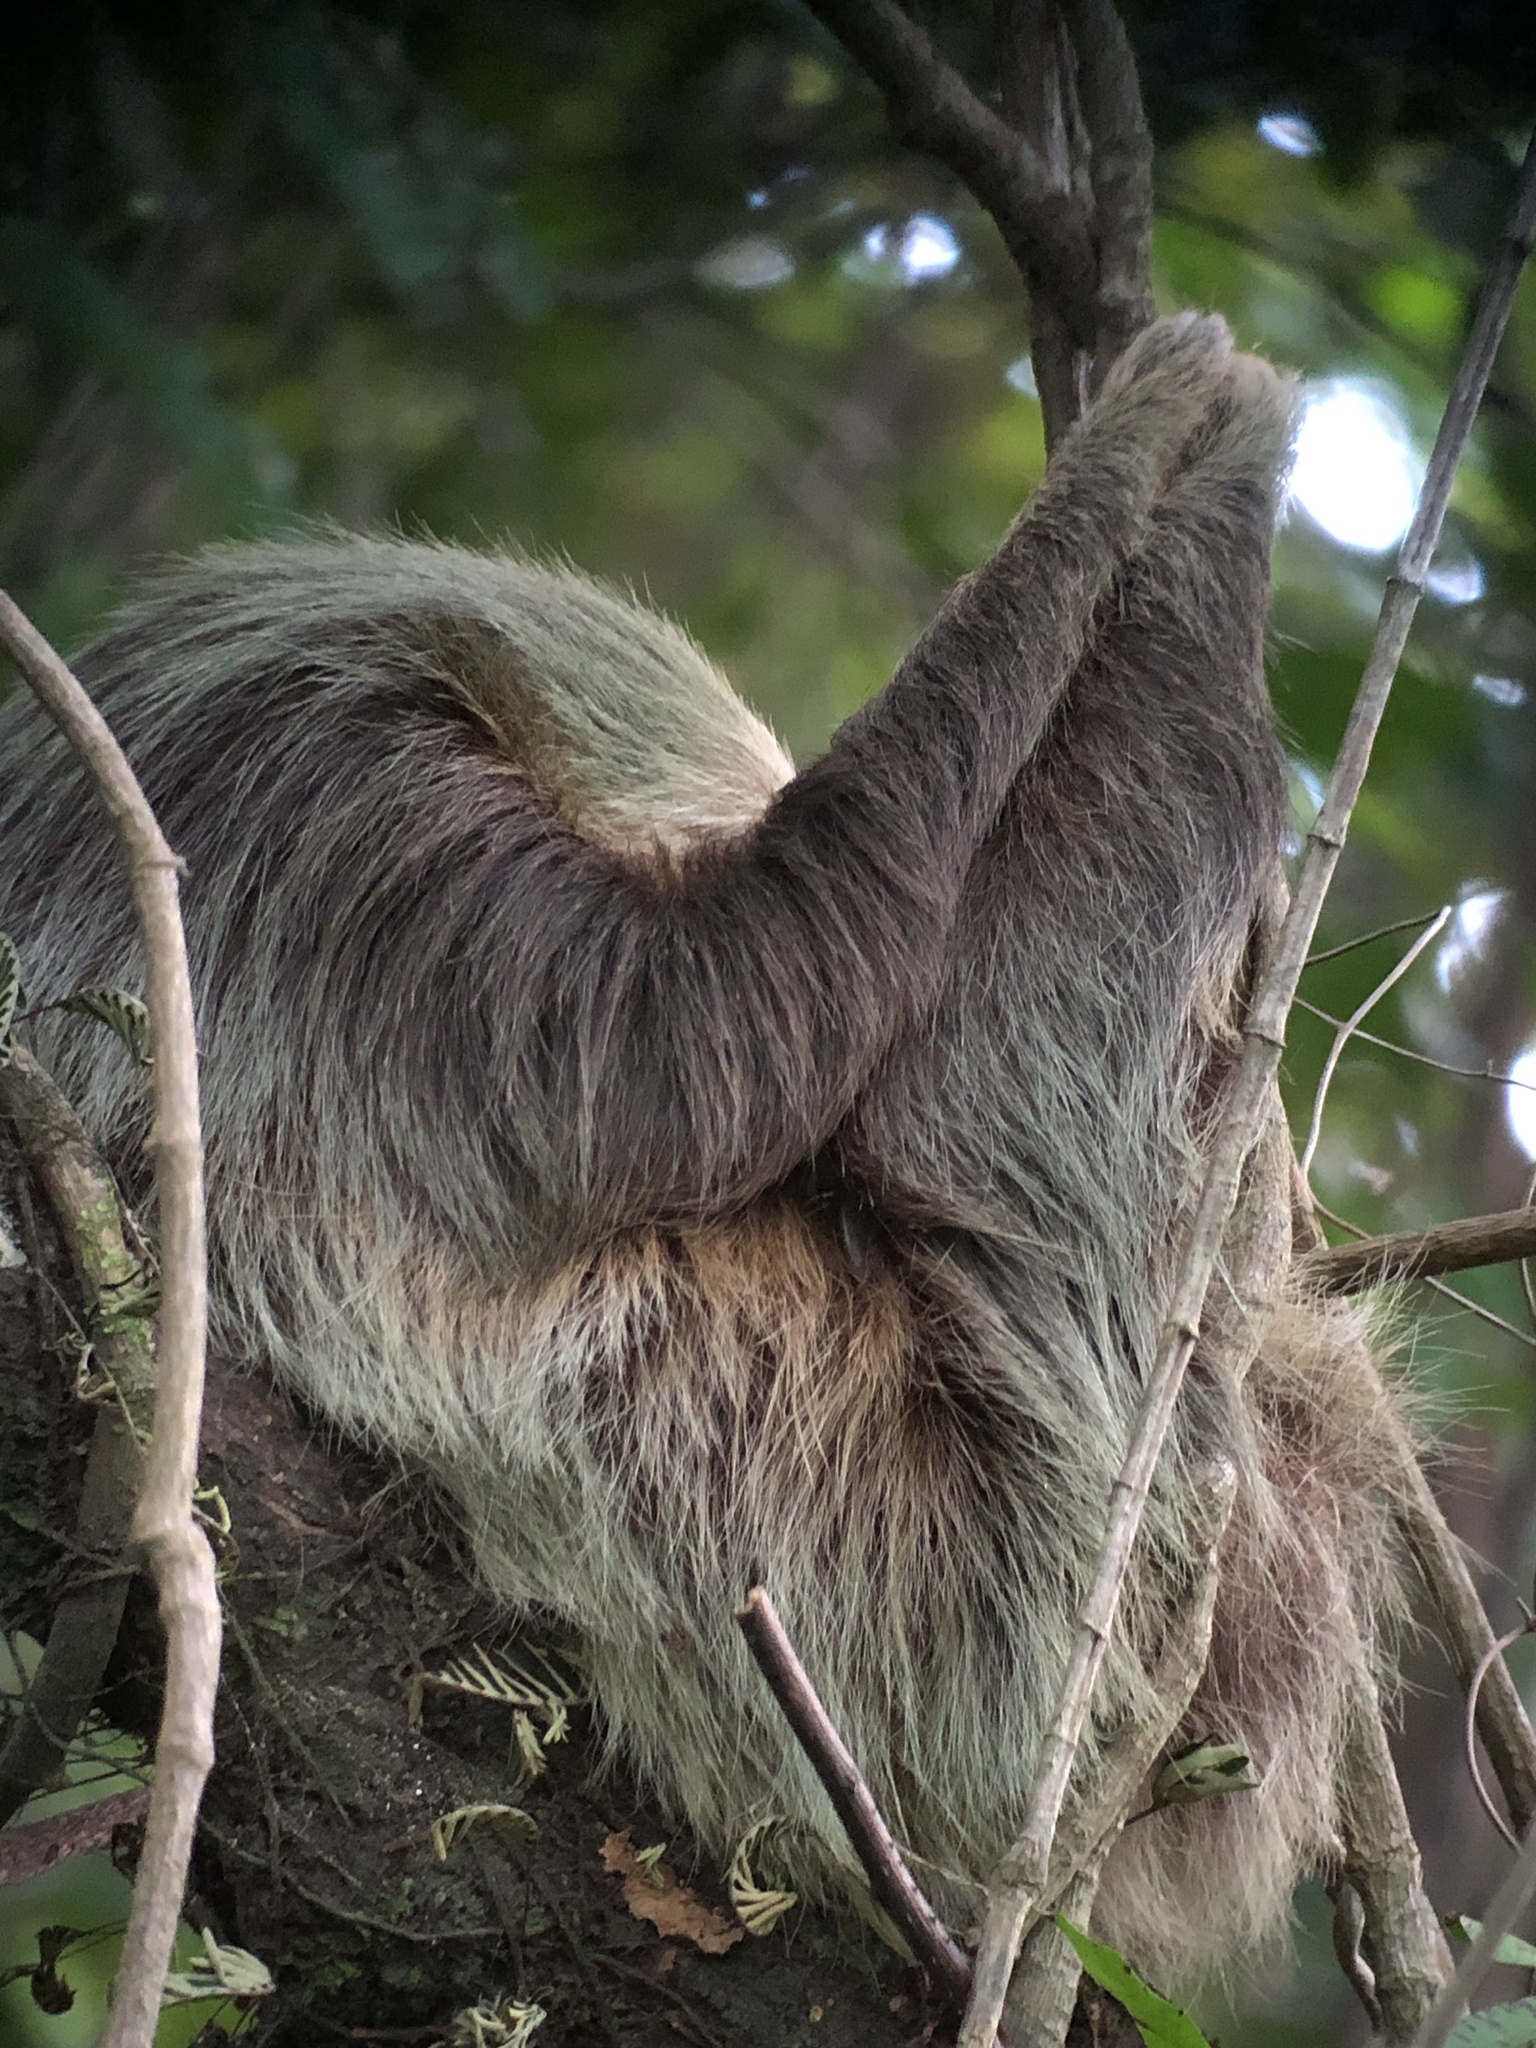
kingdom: Animalia
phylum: Chordata
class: Mammalia
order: Pilosa
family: Megalonychidae
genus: Choloepus
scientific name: Choloepus hoffmanni
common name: Hoffmann's two-toed sloth
